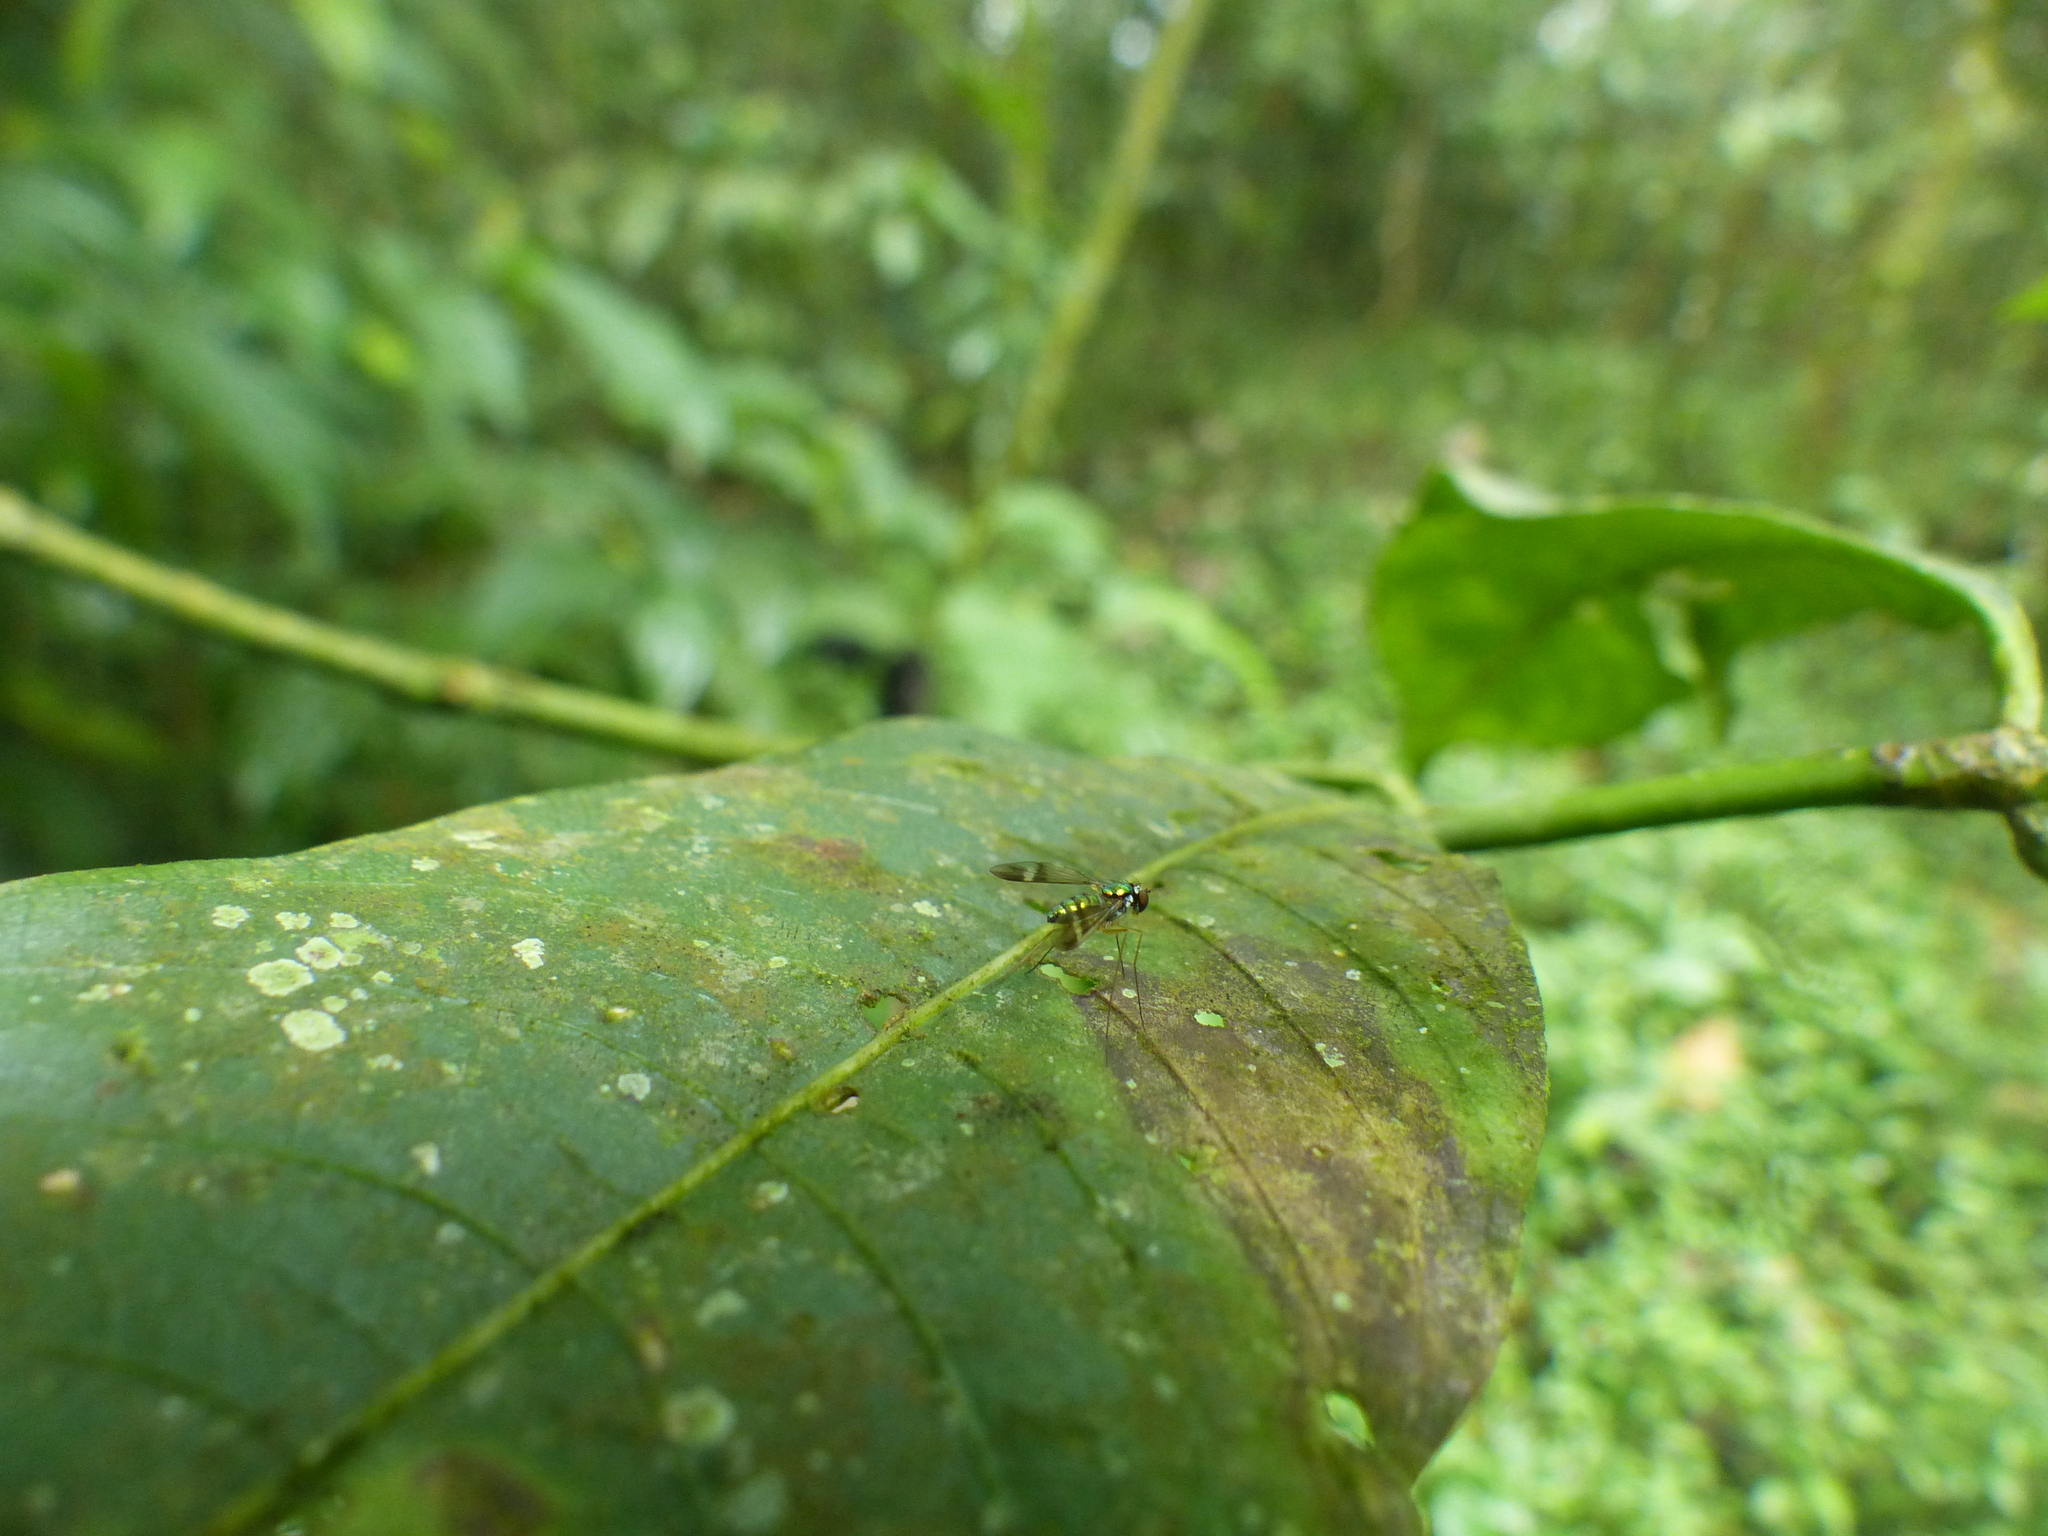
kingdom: Animalia
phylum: Arthropoda
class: Insecta
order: Diptera
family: Dolichopodidae
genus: Condylostylus
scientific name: Condylostylus flavicoxa
